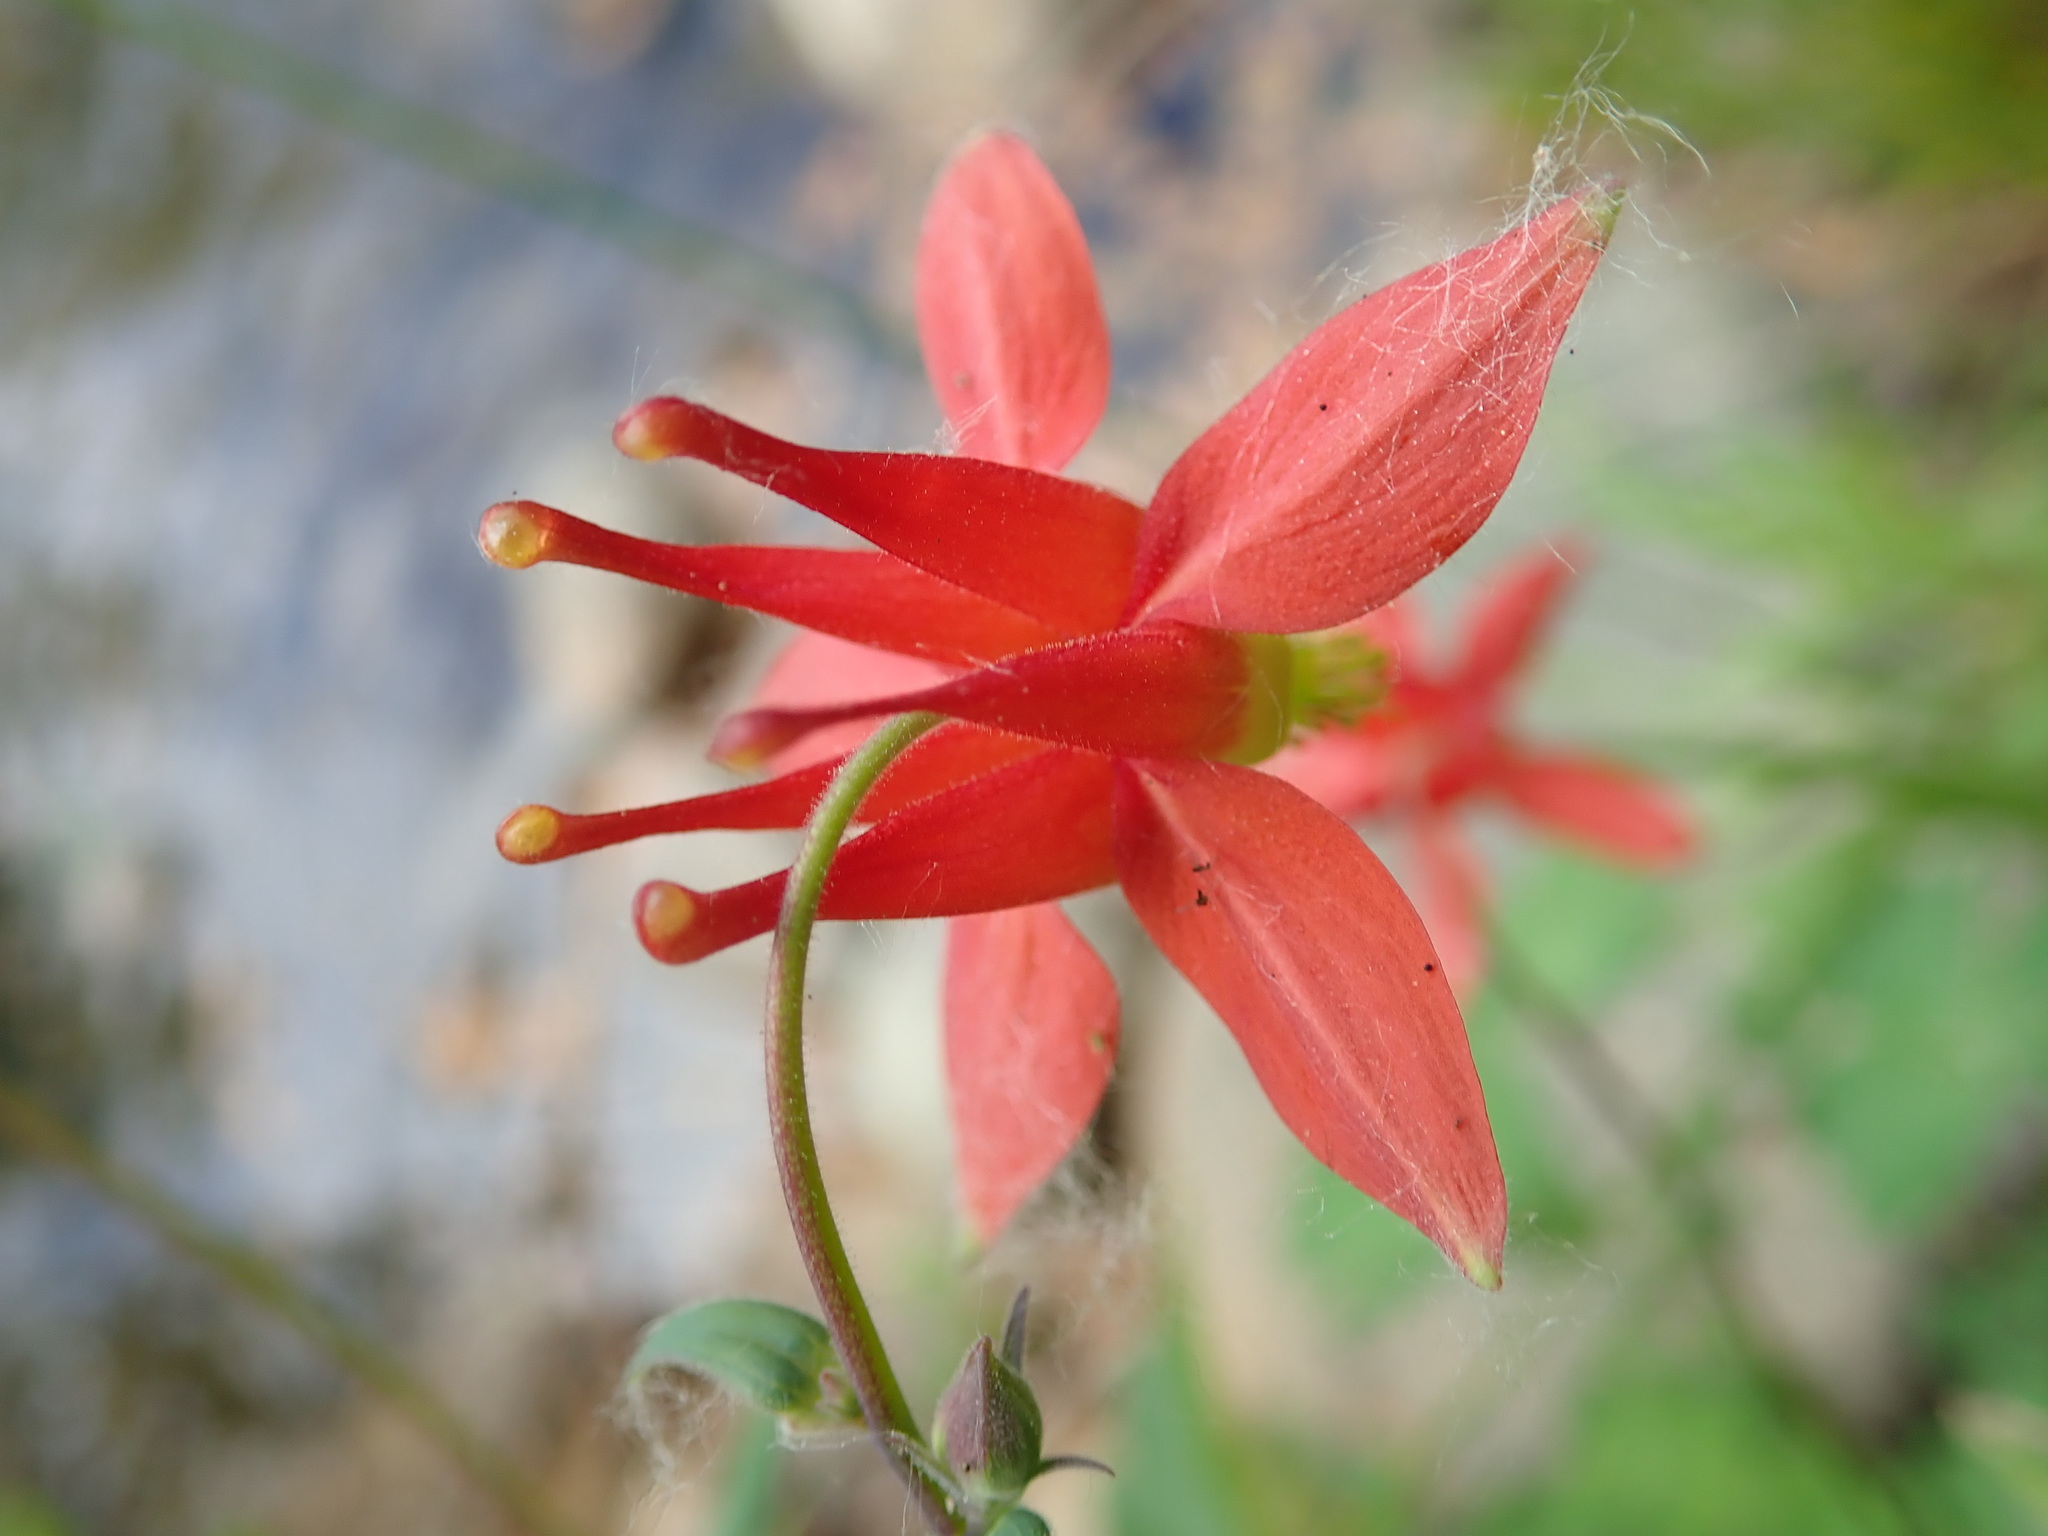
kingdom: Plantae
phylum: Tracheophyta
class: Magnoliopsida
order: Ranunculales
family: Ranunculaceae
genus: Aquilegia
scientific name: Aquilegia formosa
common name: Sitka columbine
